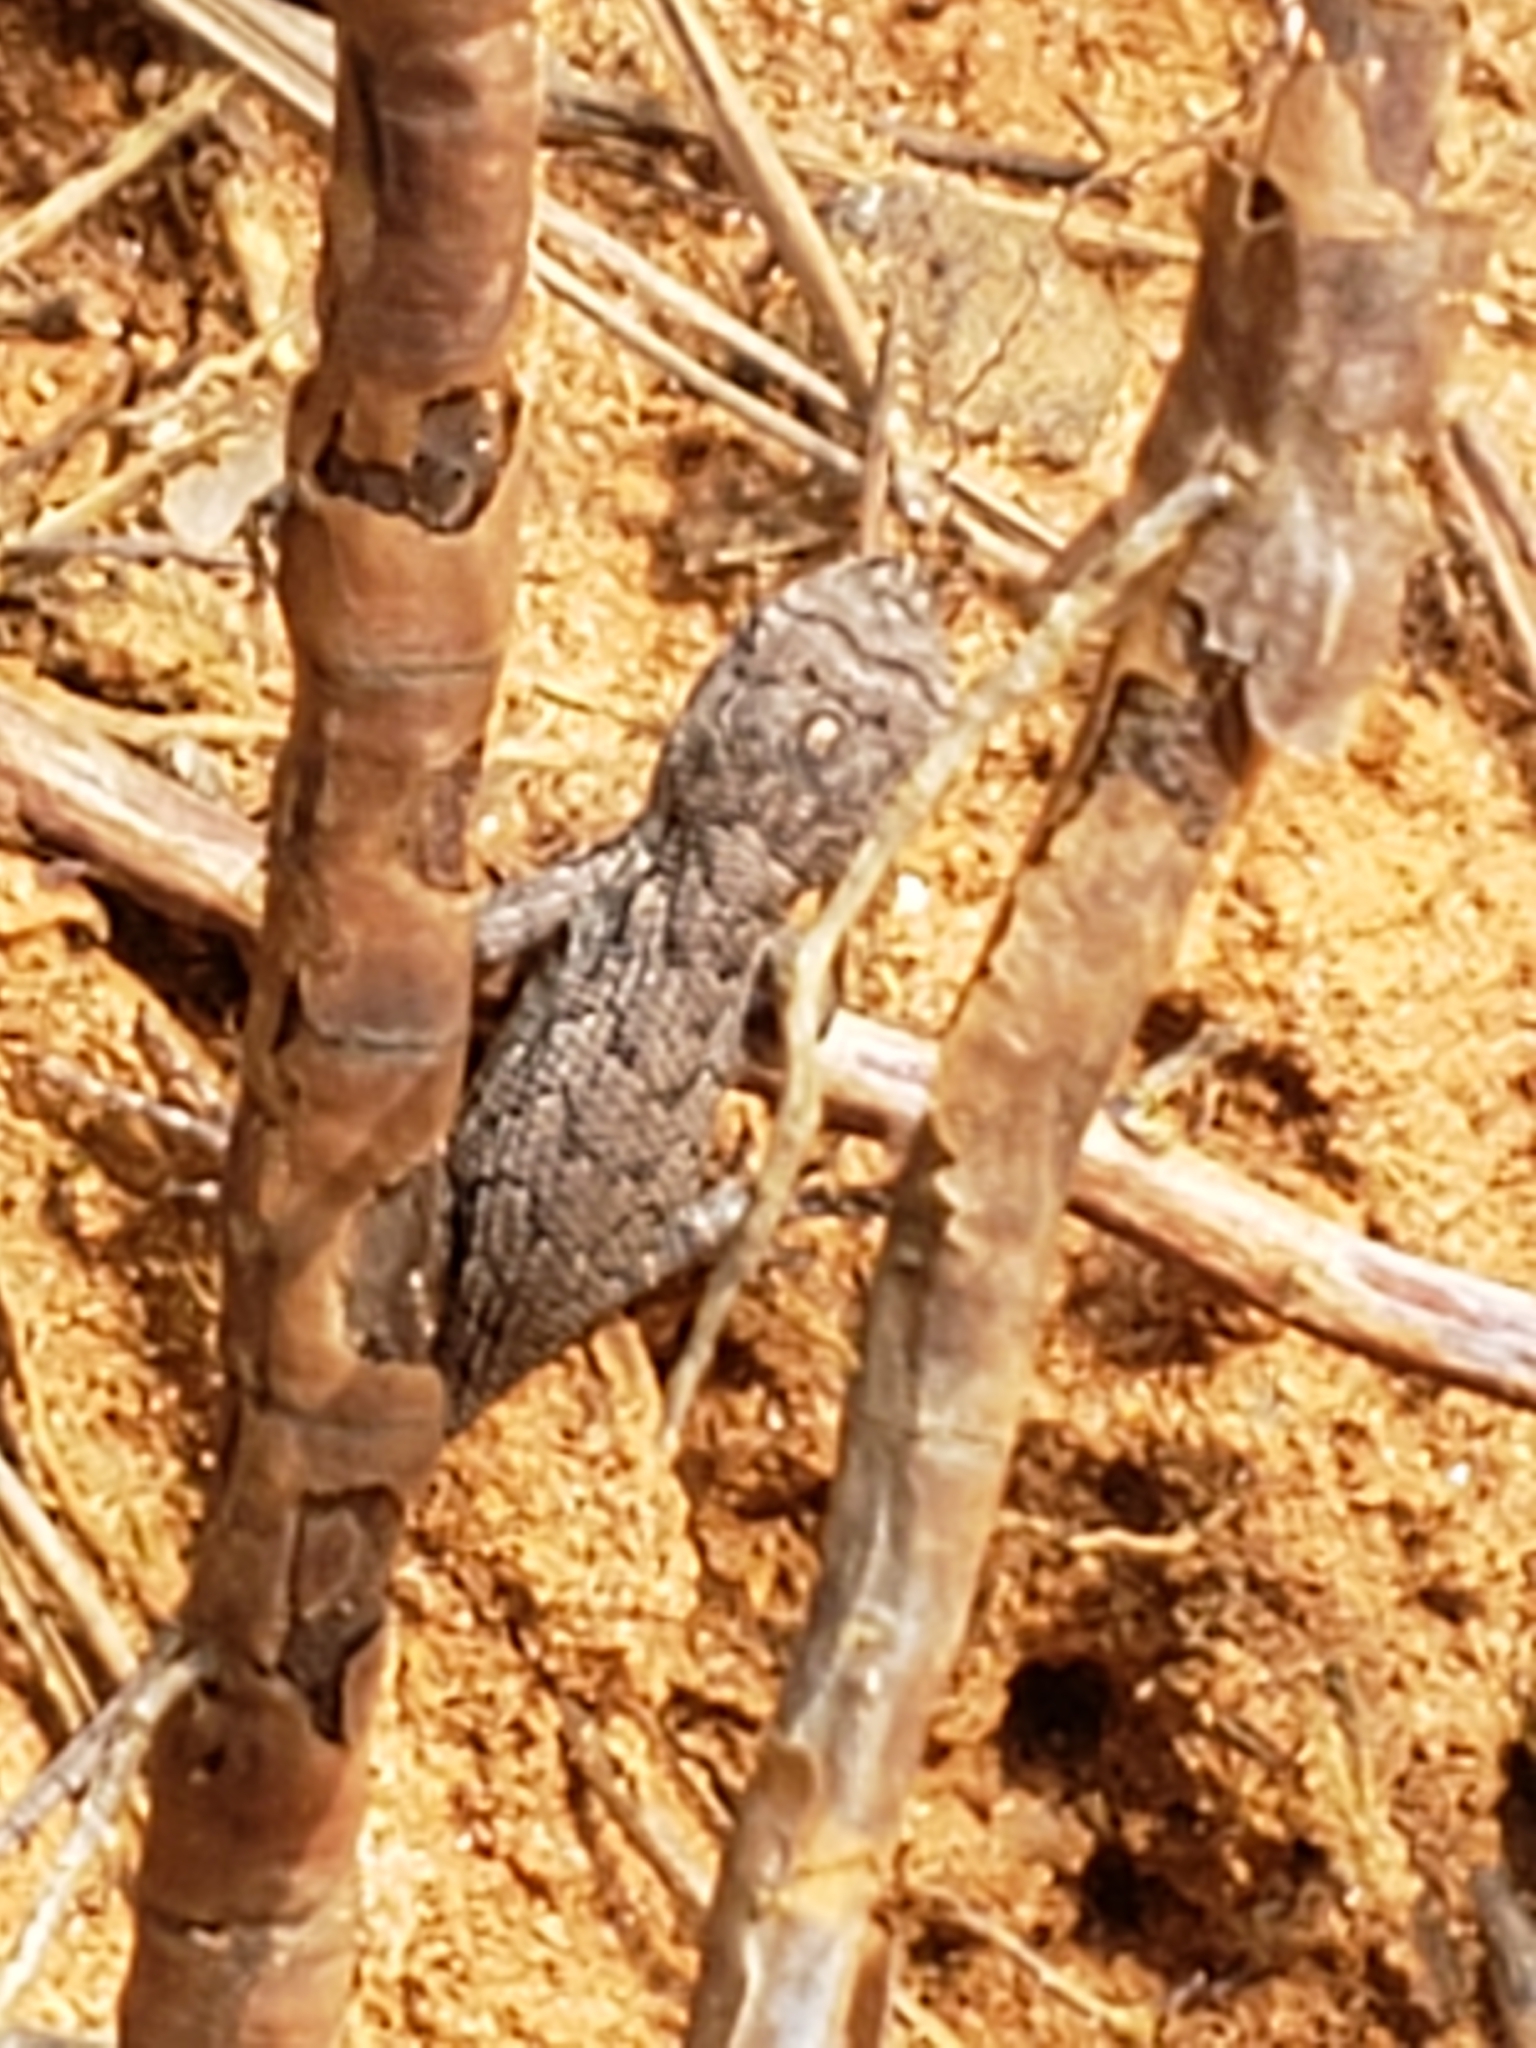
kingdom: Animalia
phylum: Chordata
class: Squamata
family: Phrynosomatidae
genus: Sceloporus
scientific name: Sceloporus undulatus
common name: Eastern fence lizard
